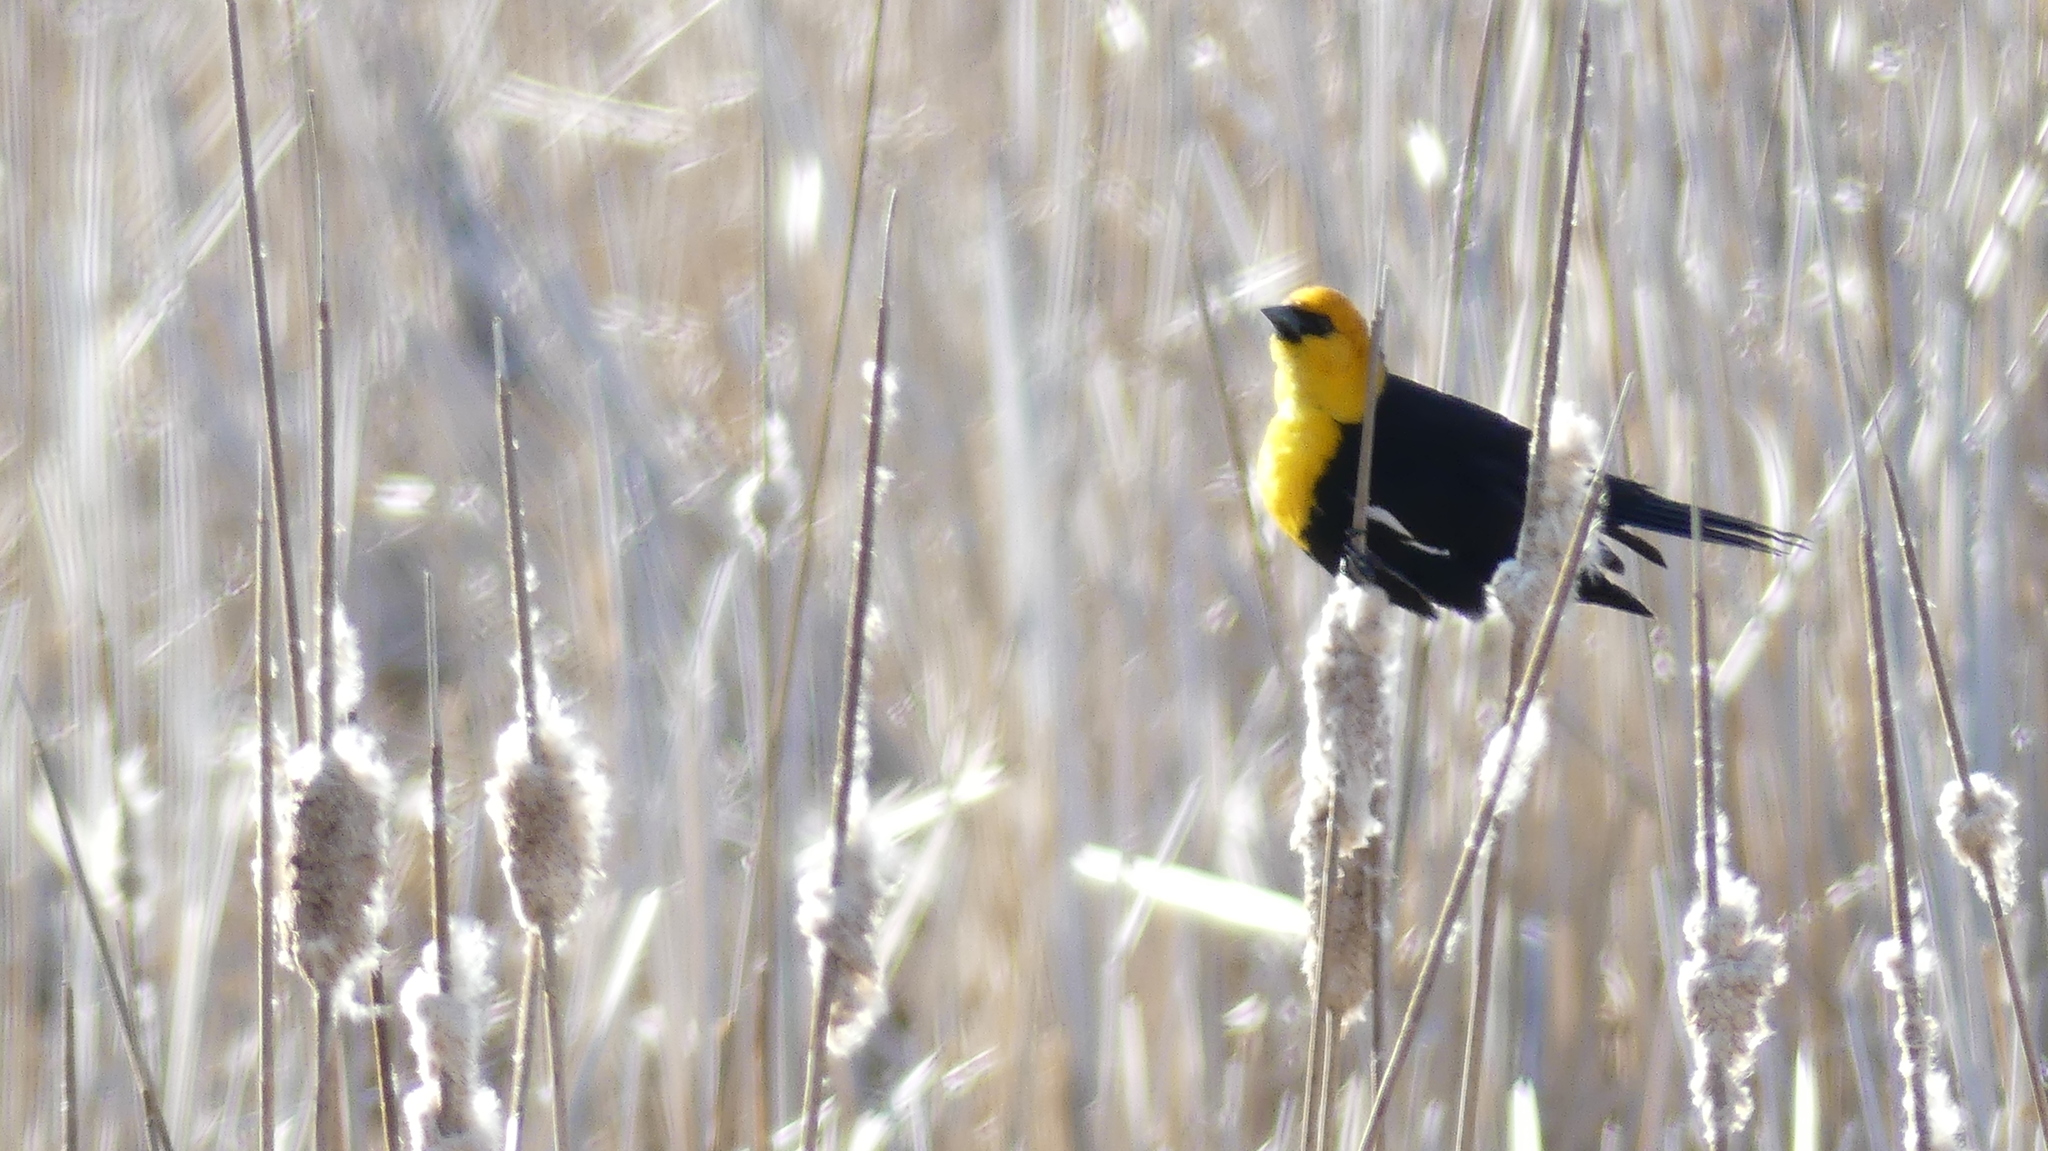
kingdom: Animalia
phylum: Chordata
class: Aves
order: Passeriformes
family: Icteridae
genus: Xanthocephalus
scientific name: Xanthocephalus xanthocephalus
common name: Yellow-headed blackbird
